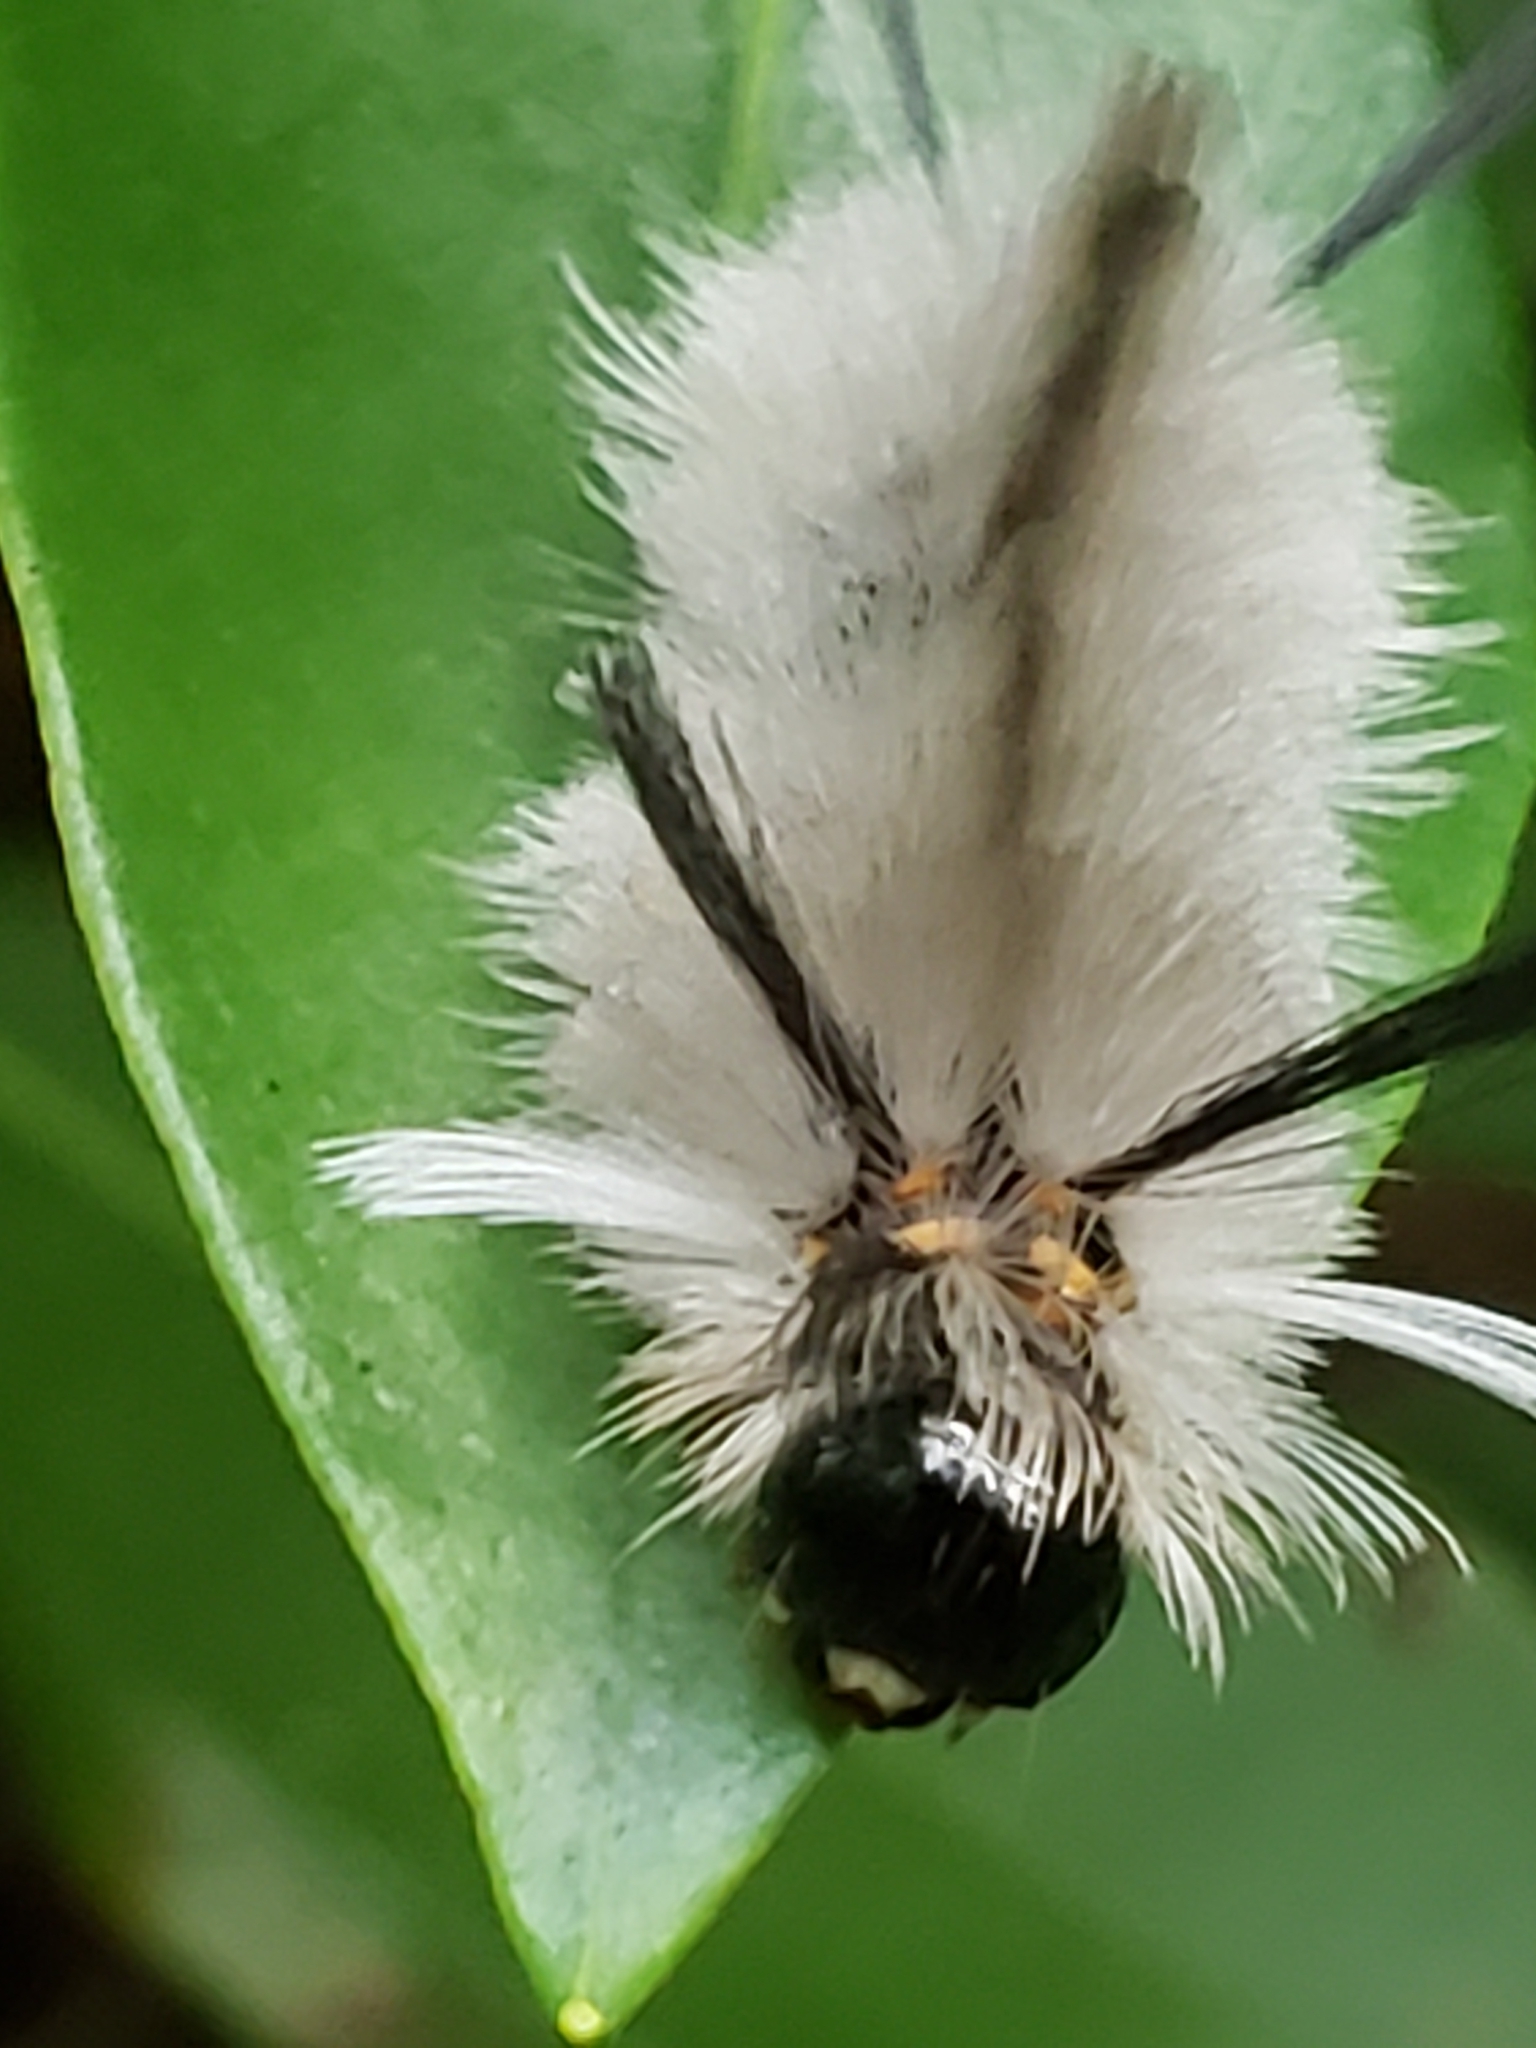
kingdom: Animalia
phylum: Arthropoda
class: Insecta
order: Lepidoptera
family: Erebidae
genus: Halysidota
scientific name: Halysidota tessellaris
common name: Banded tussock moth
